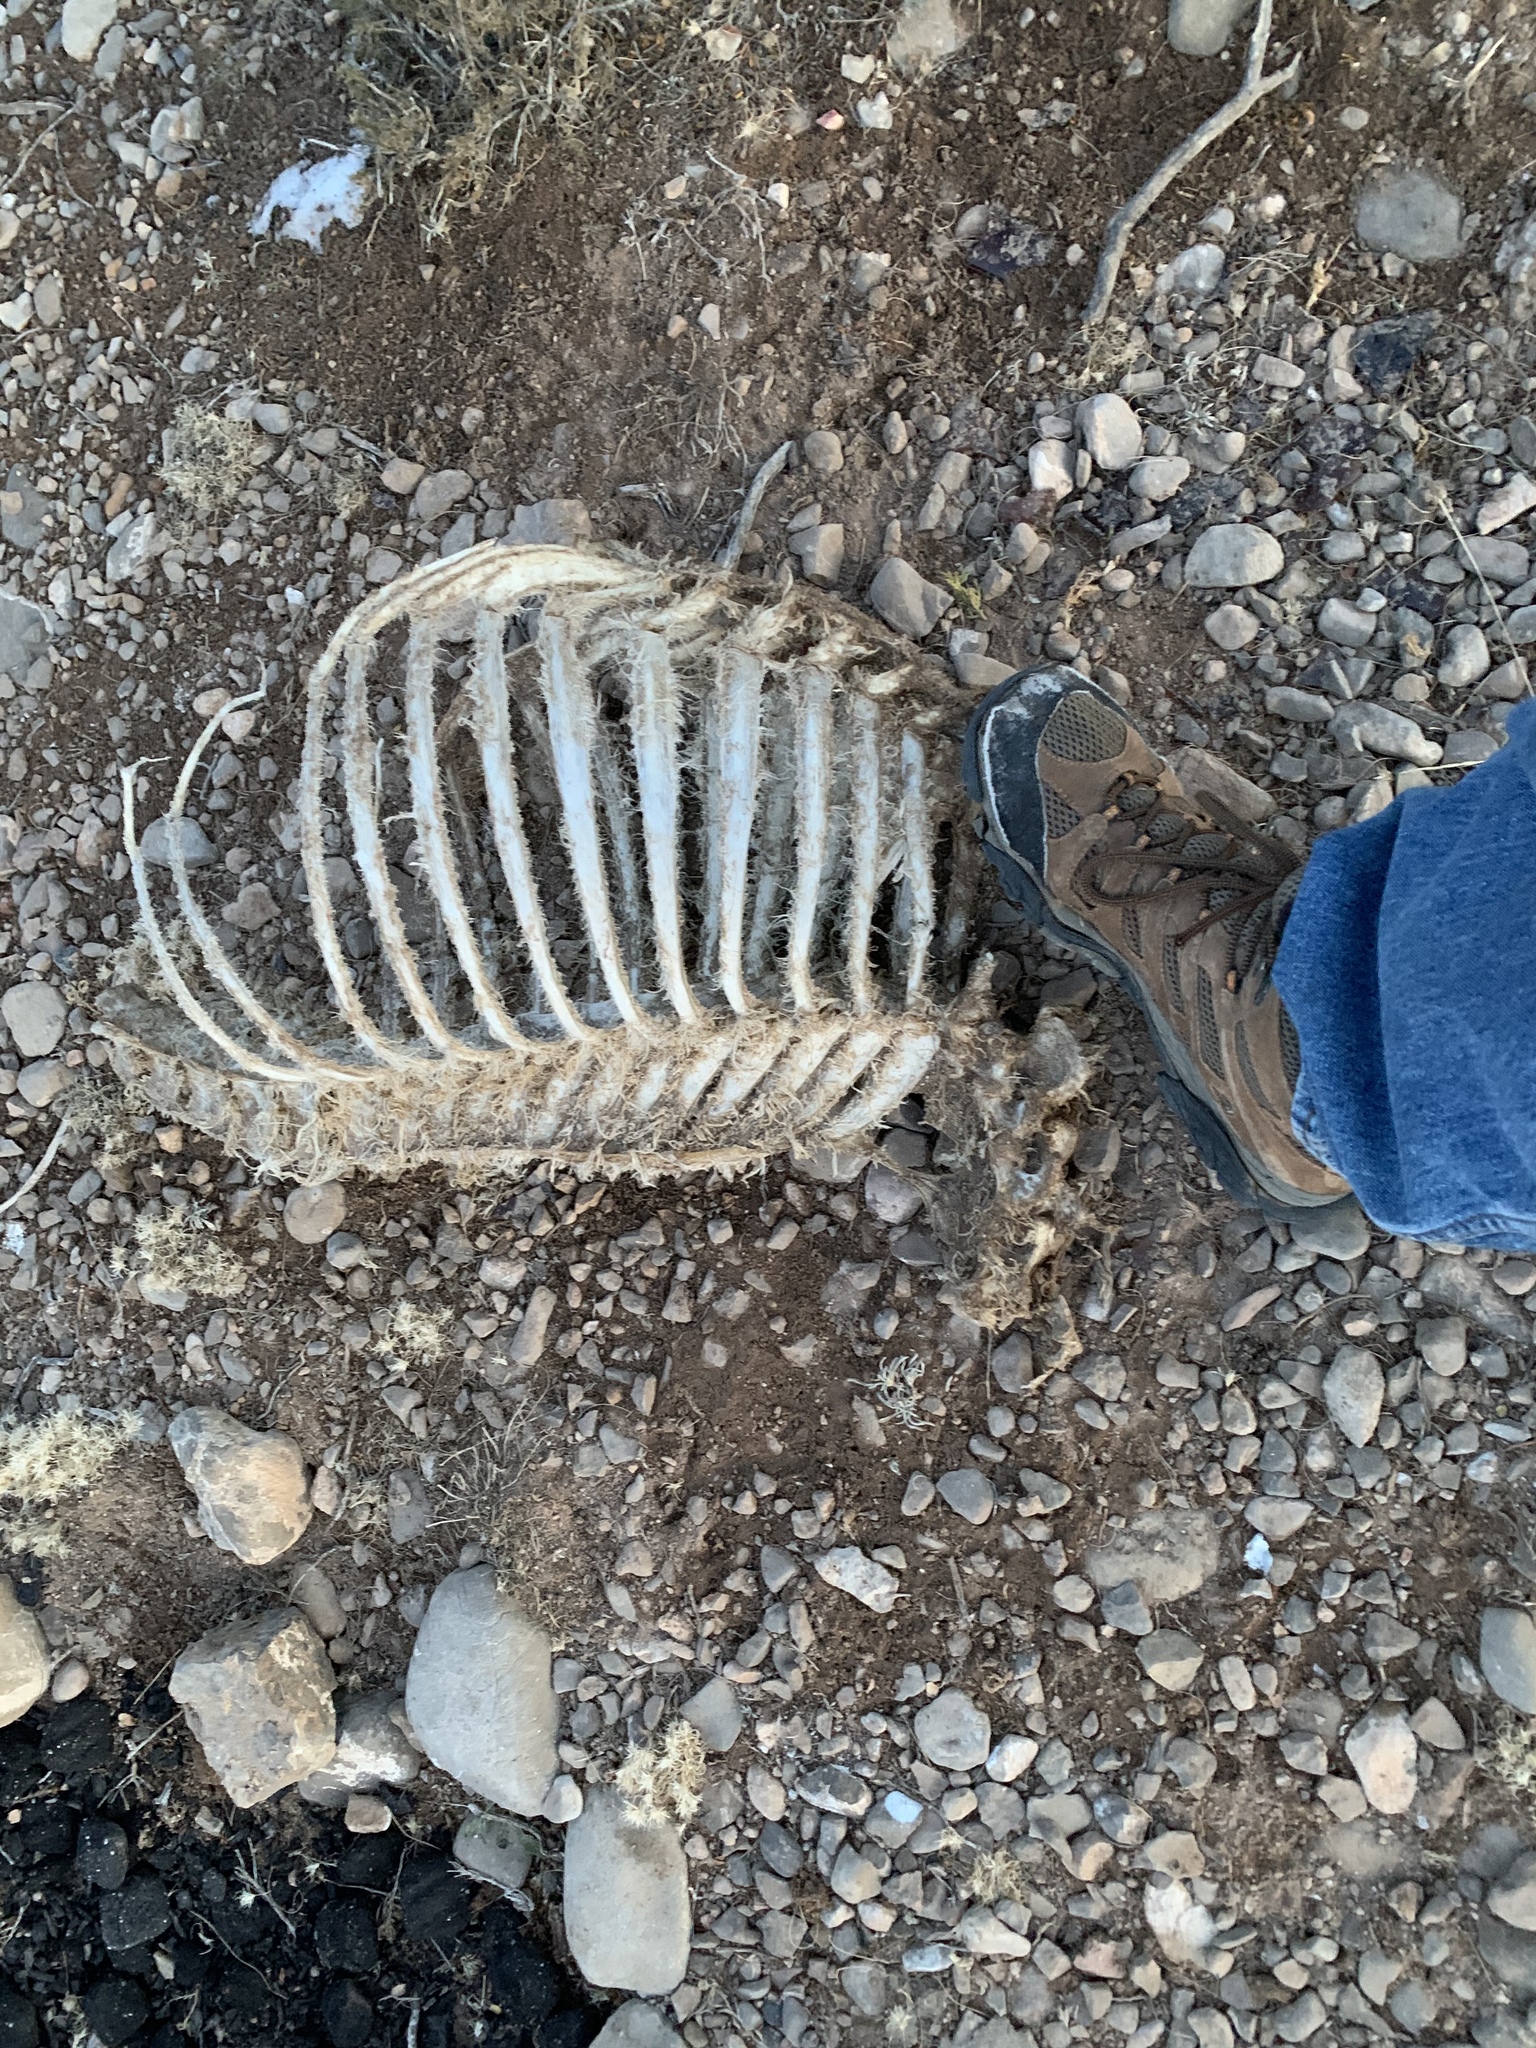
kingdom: Animalia
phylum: Chordata
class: Mammalia
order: Artiodactyla
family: Cervidae
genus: Odocoileus
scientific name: Odocoileus hemionus
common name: Mule deer
